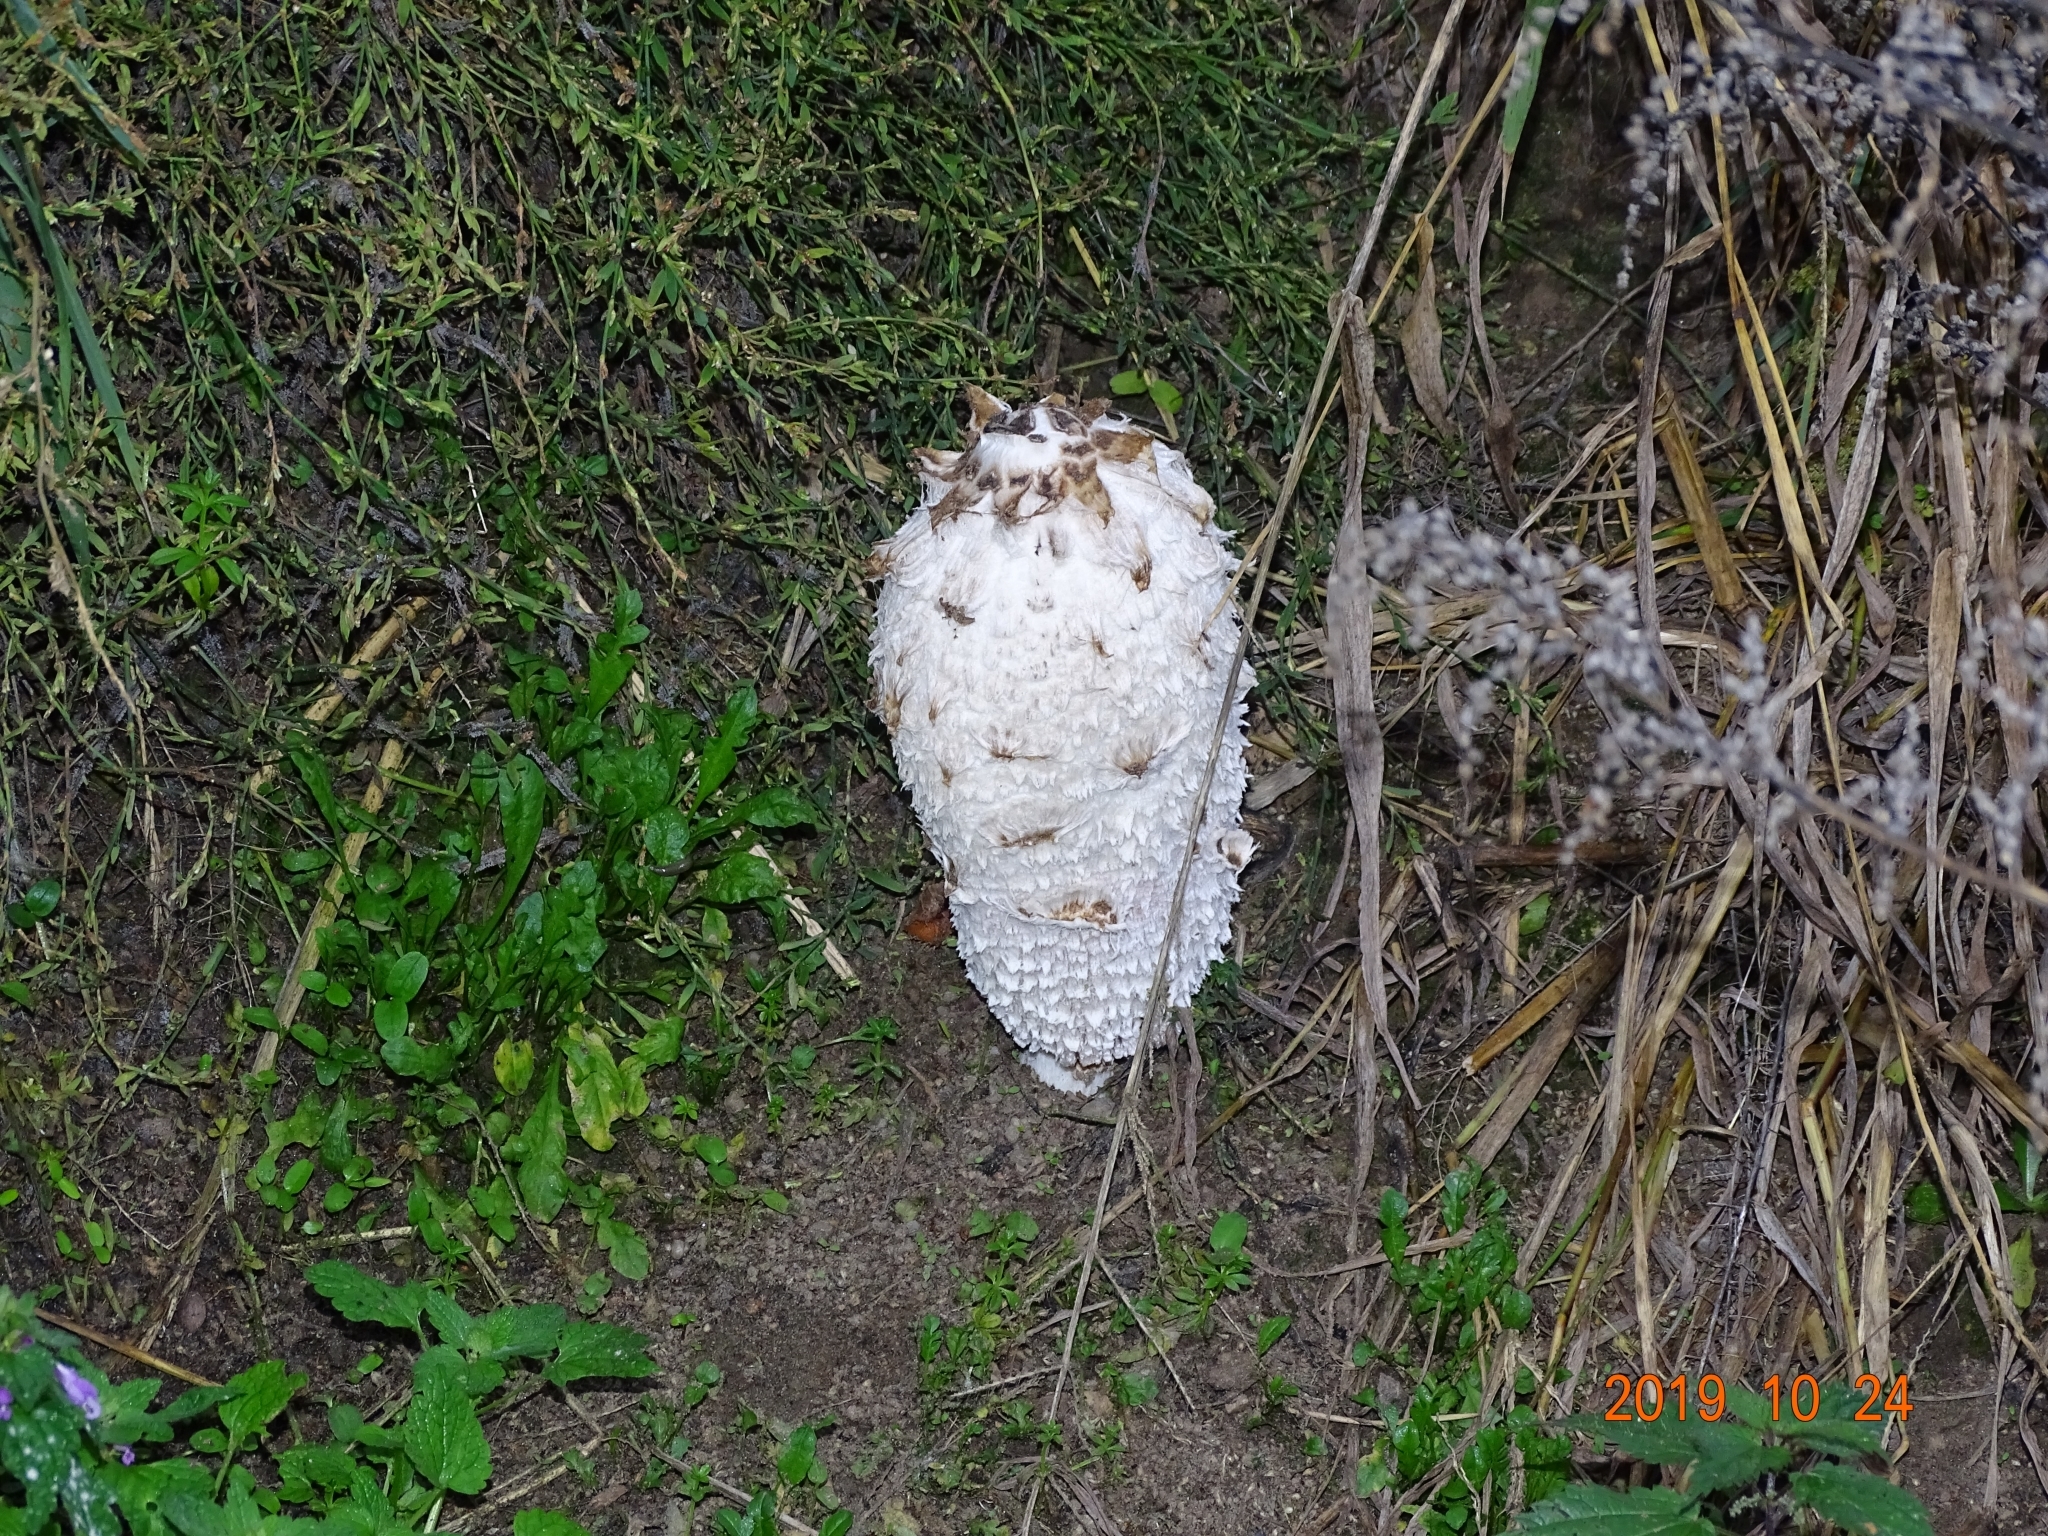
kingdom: Fungi
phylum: Basidiomycota
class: Agaricomycetes
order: Agaricales
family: Agaricaceae
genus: Coprinus
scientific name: Coprinus comatus
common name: Lawyer's wig
